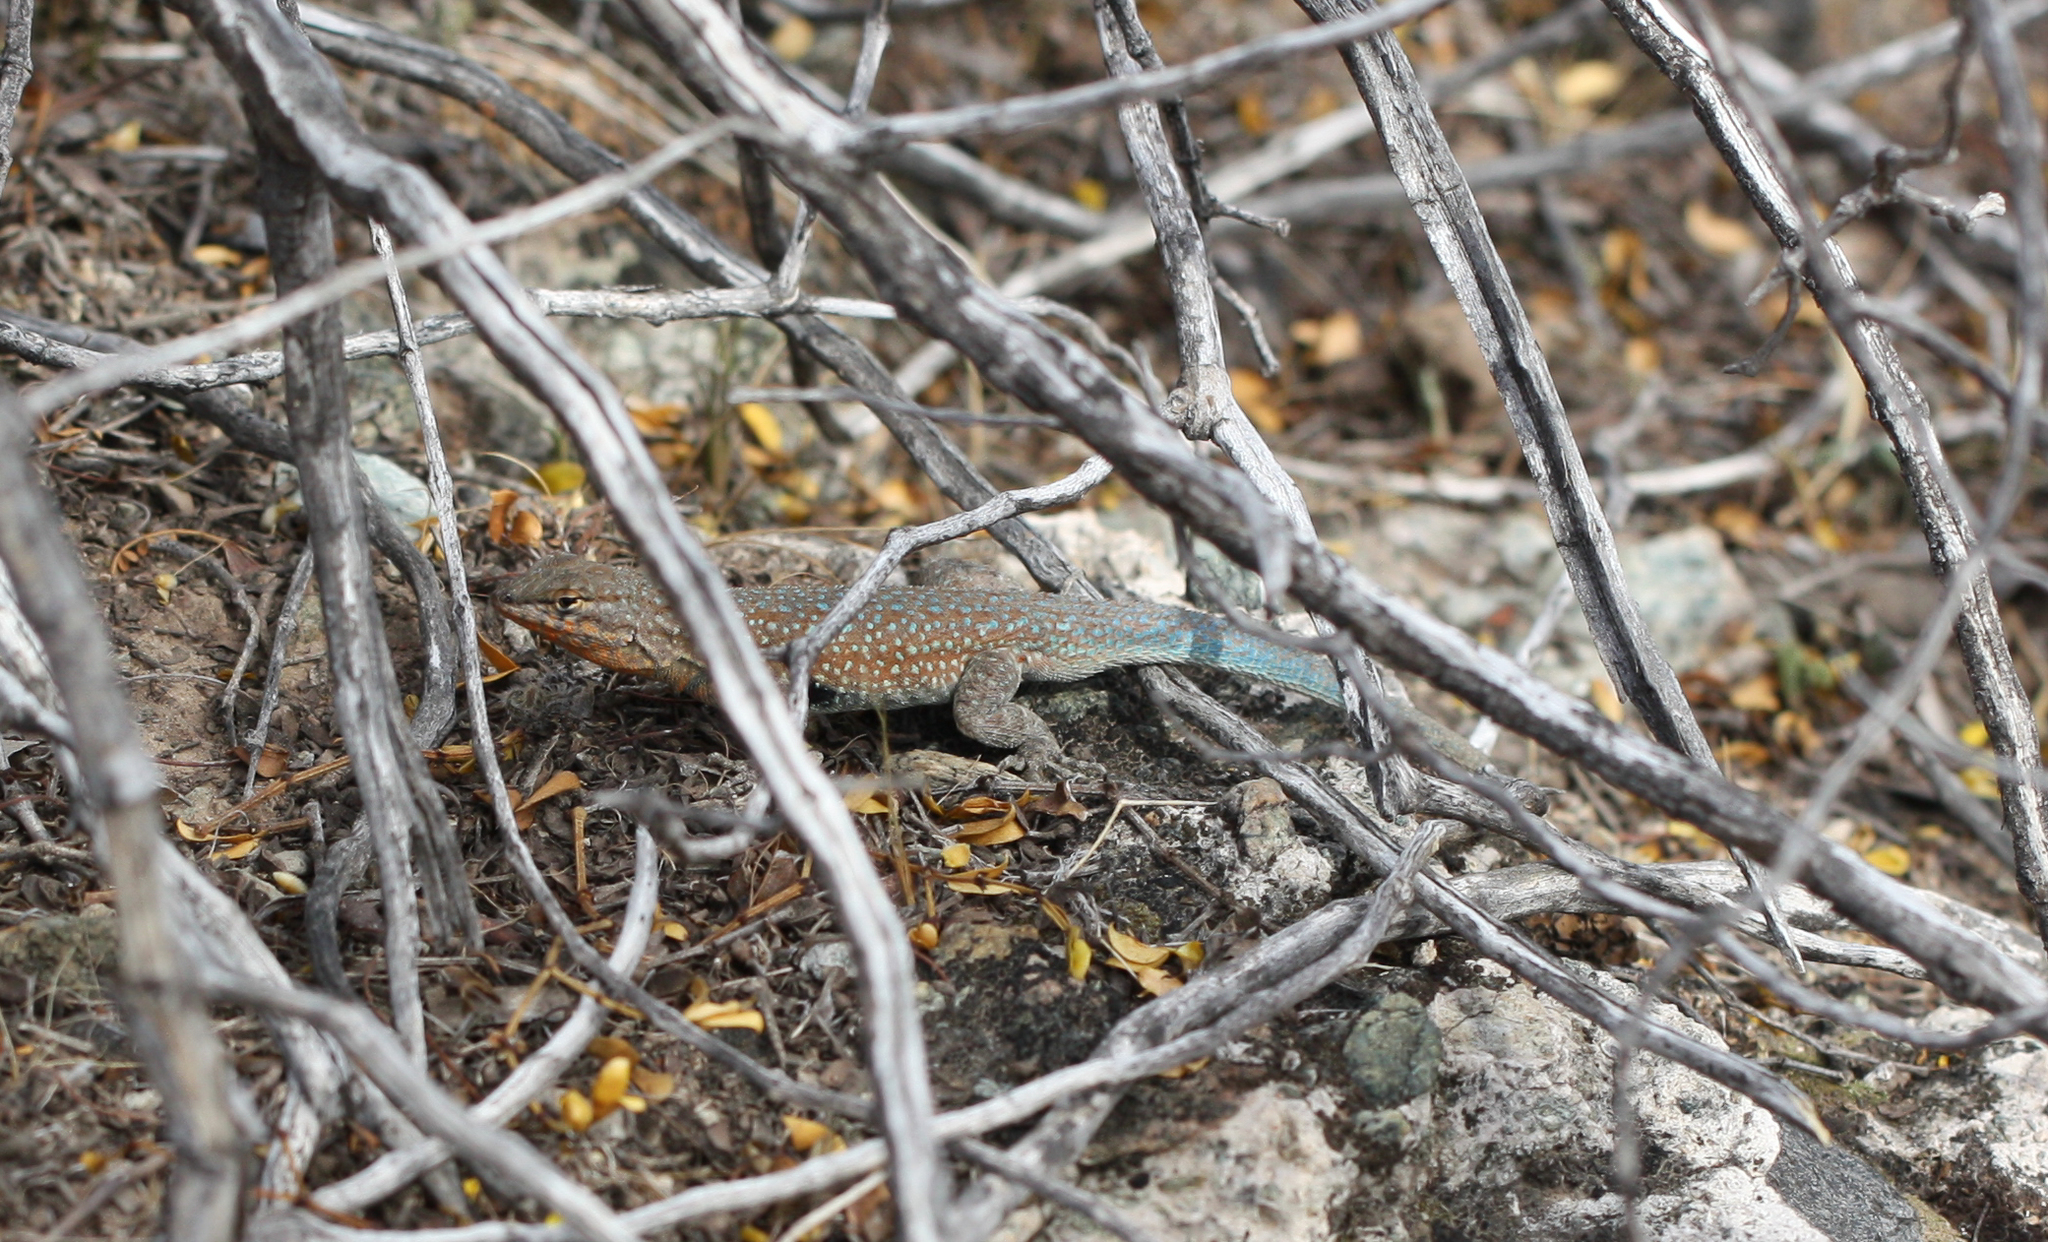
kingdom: Animalia
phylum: Chordata
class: Squamata
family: Phrynosomatidae
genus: Uta
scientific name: Uta stansburiana
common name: Side-blotched lizard
